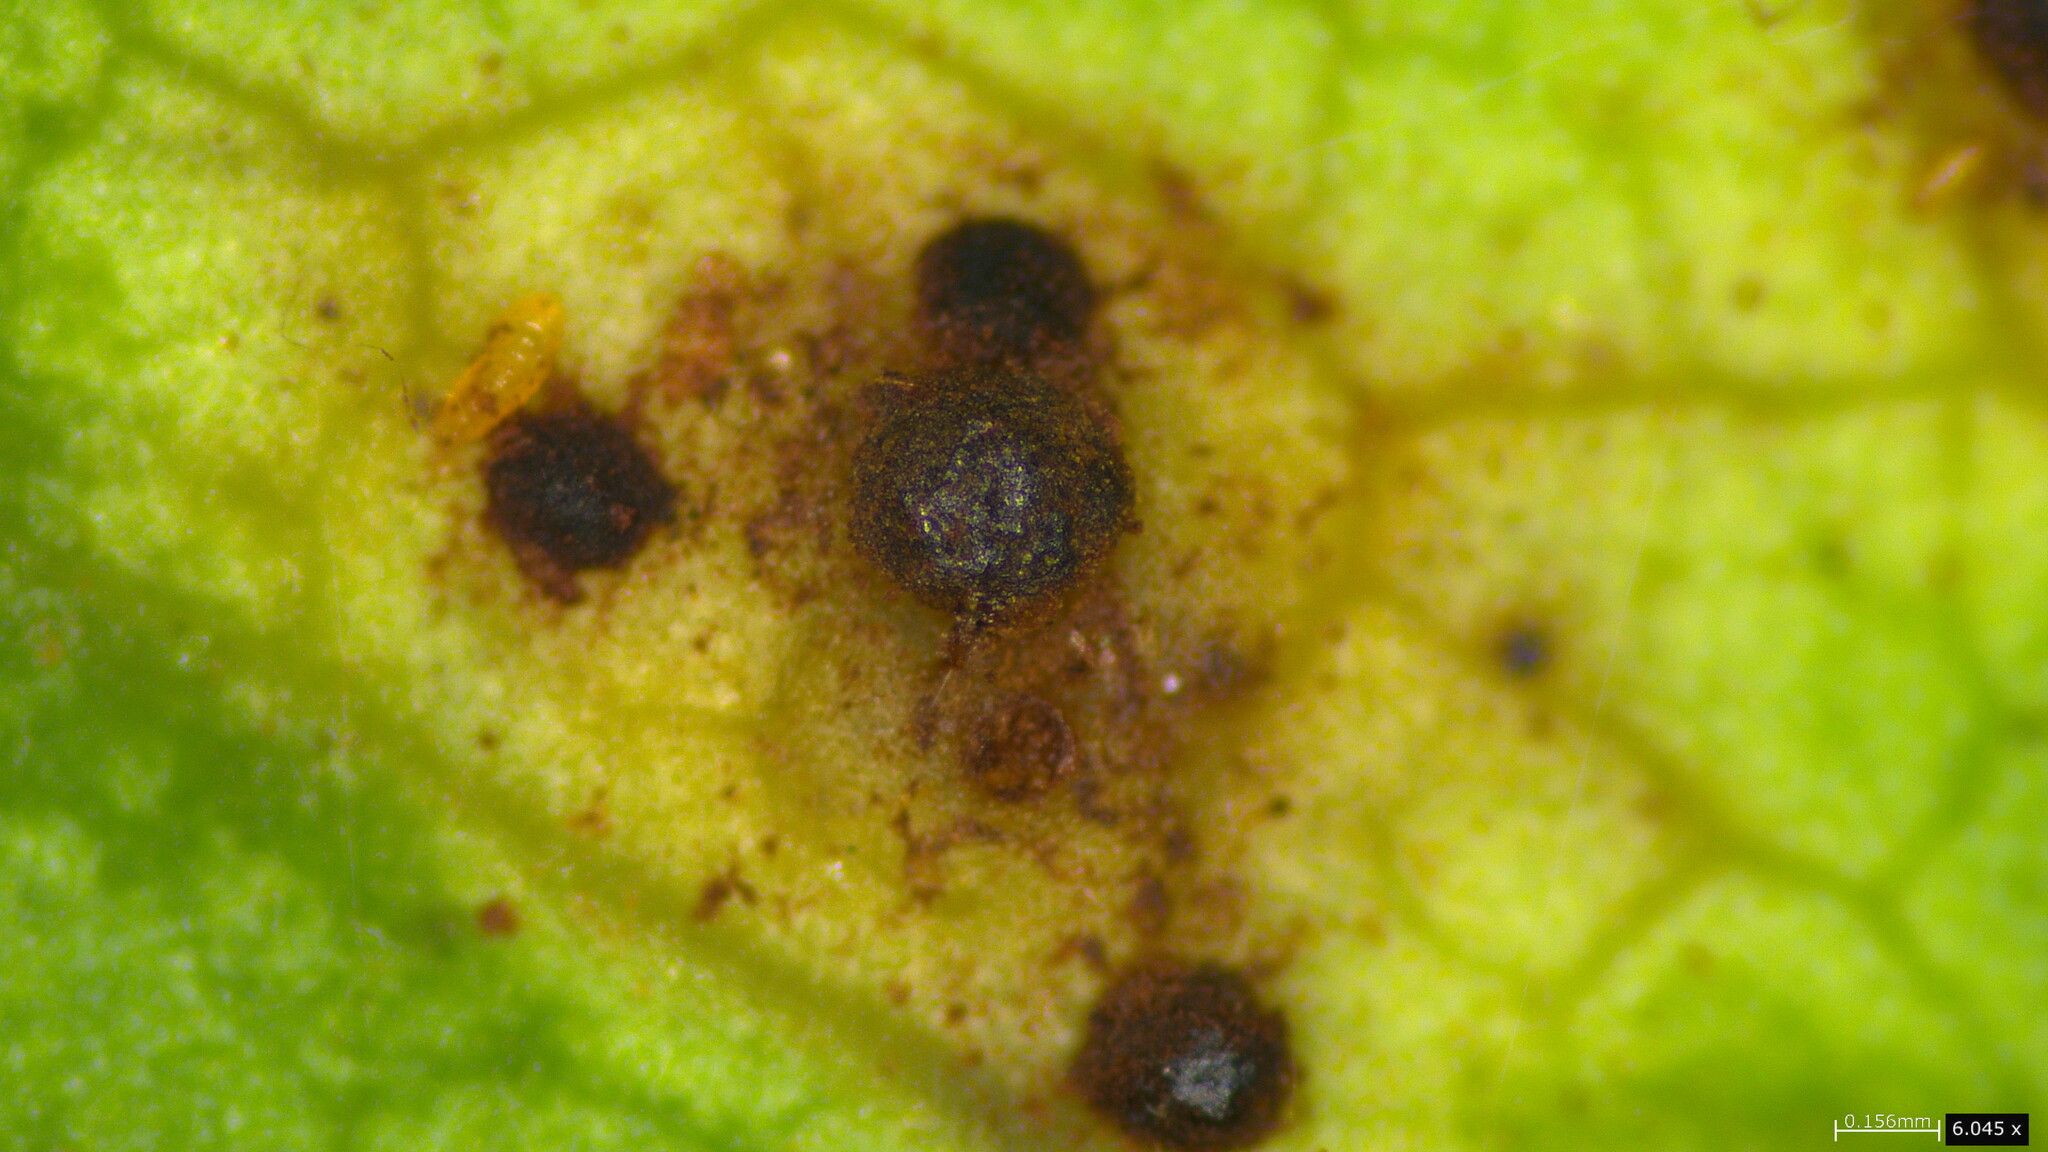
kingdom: Fungi
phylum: Basidiomycota
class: Pucciniomycetes
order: Pucciniales
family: Pucciniaceae
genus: Puccinia
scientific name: Puccinia cymbiformis
